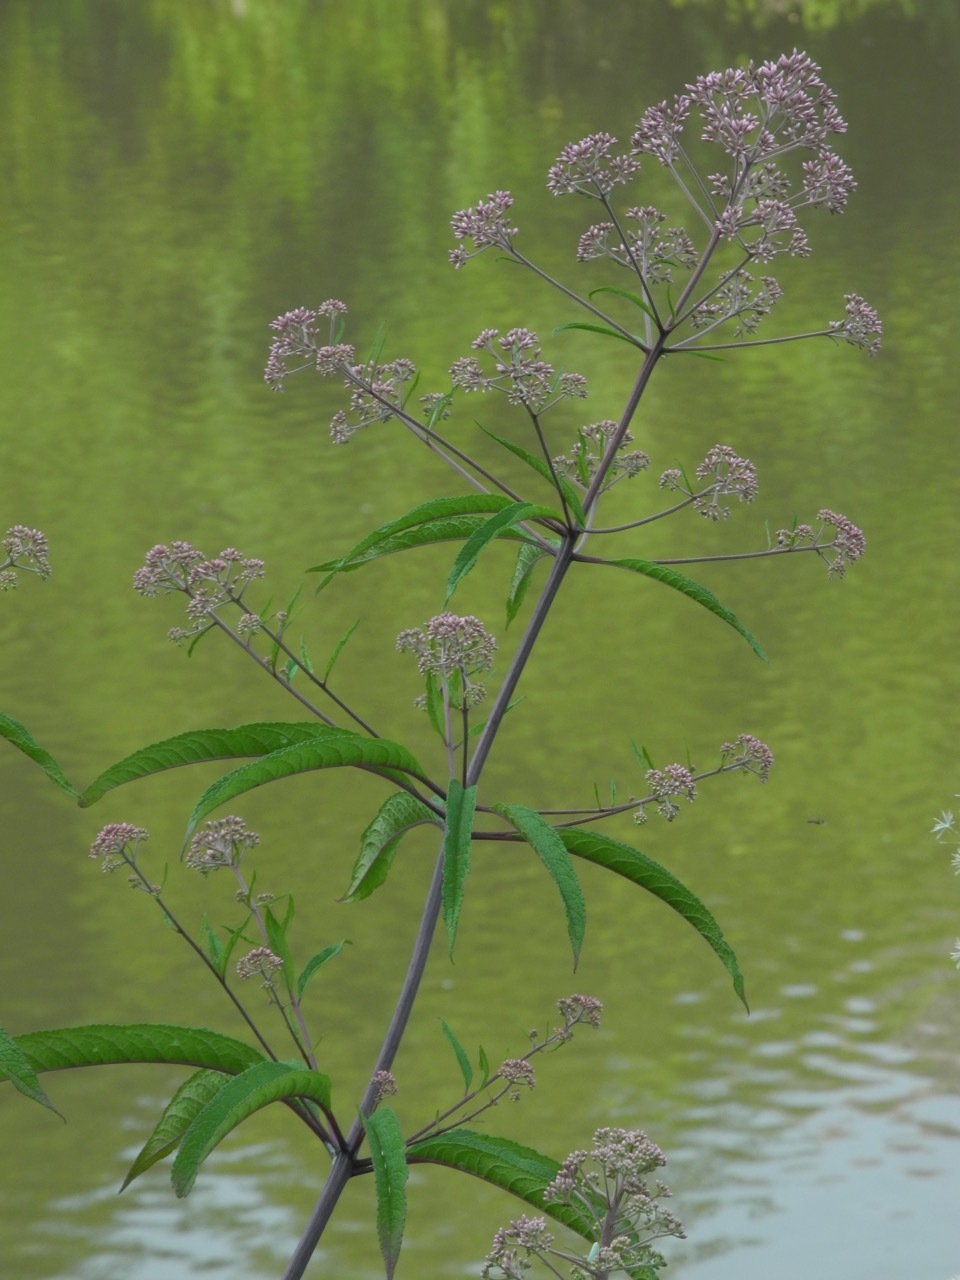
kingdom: Plantae
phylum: Tracheophyta
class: Magnoliopsida
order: Asterales
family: Asteraceae
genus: Eutrochium
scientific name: Eutrochium fistulosum
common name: Trumpetweed
